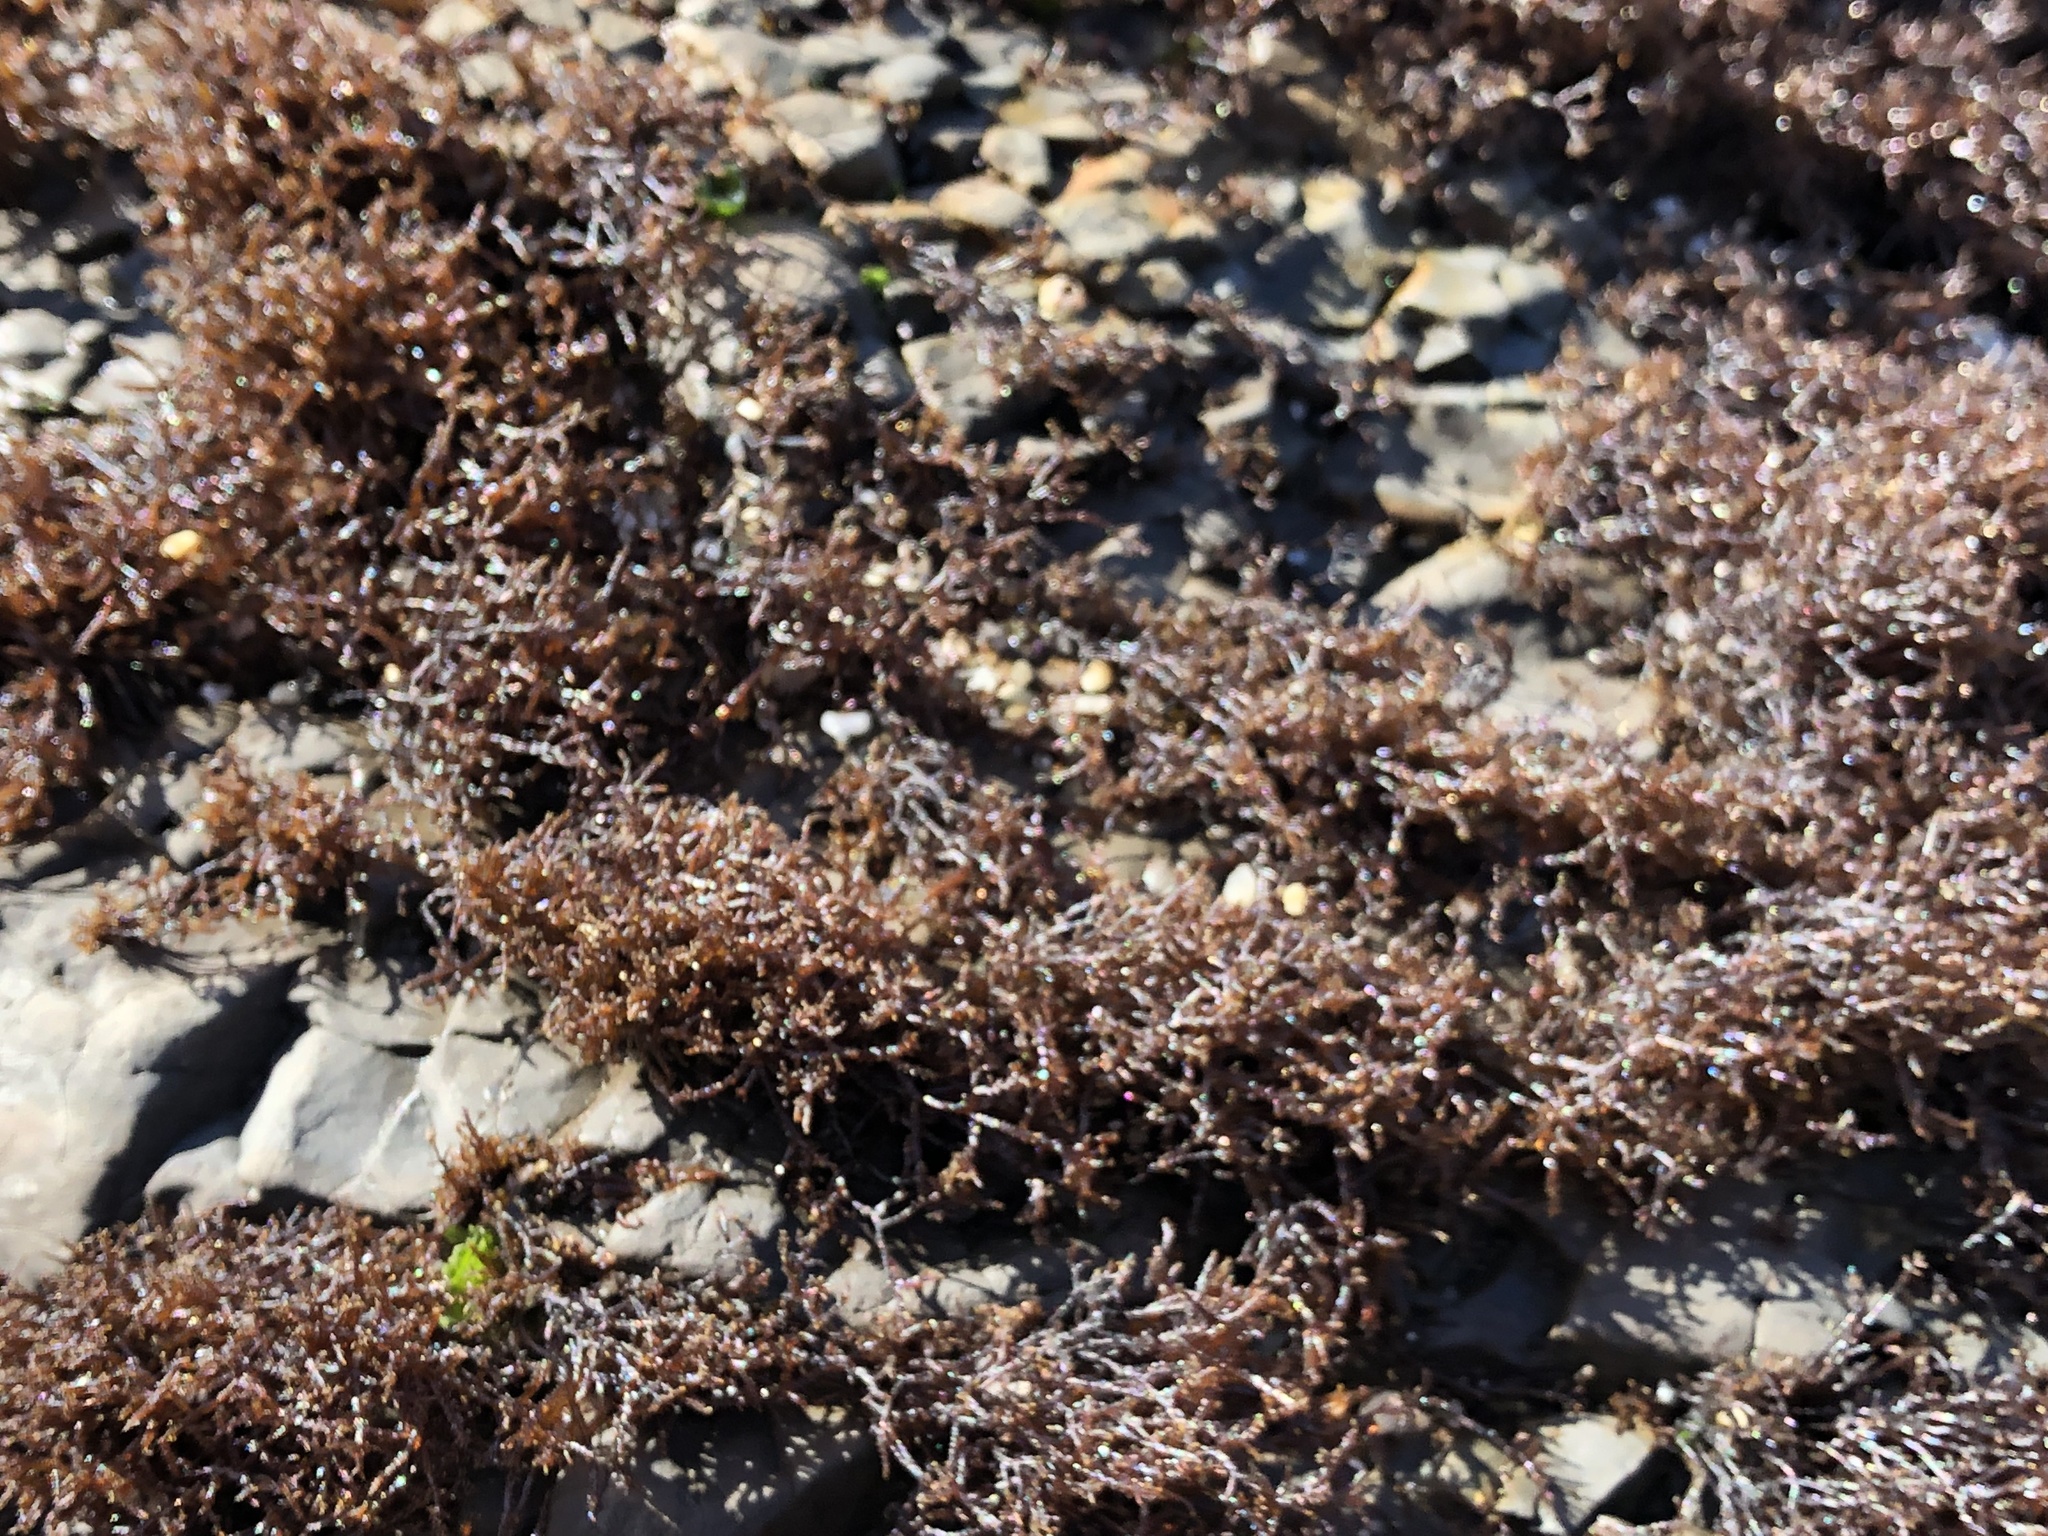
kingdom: Plantae
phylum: Rhodophyta
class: Florideophyceae
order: Gigartinales
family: Endocladiaceae
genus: Endocladia
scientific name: Endocladia muricata
